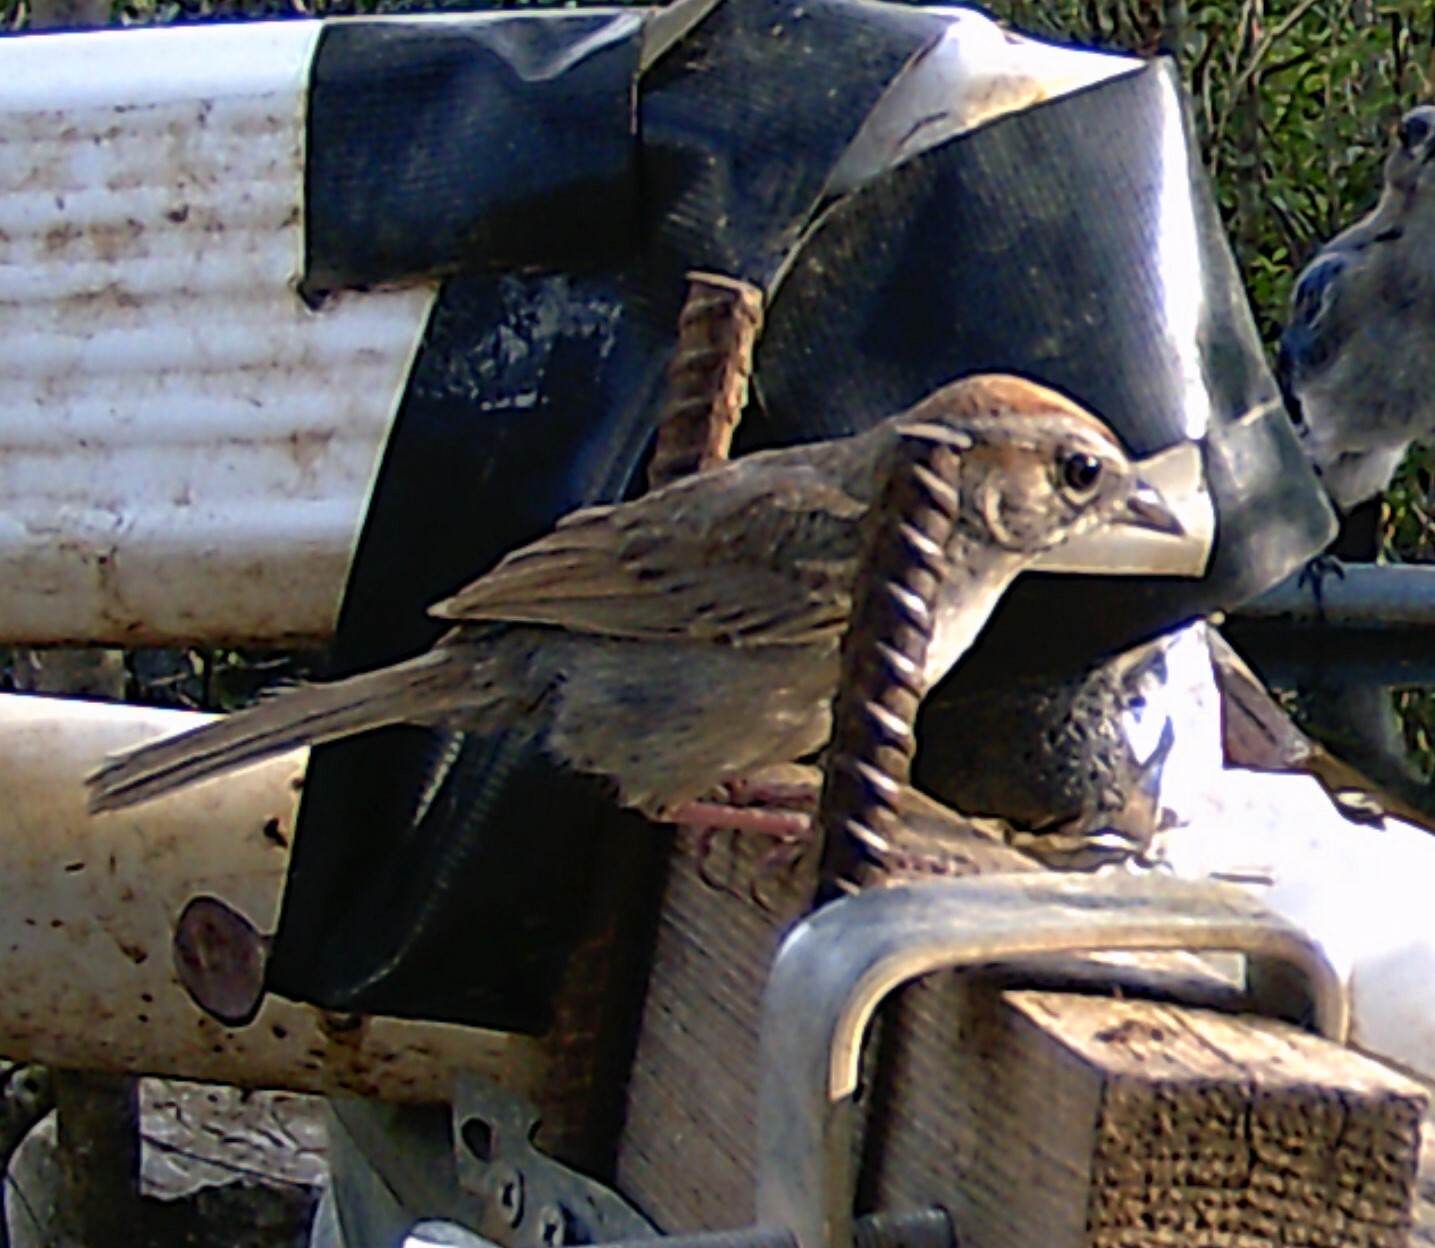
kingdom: Animalia
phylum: Chordata
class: Aves
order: Passeriformes
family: Passerellidae
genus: Aimophila
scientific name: Aimophila ruficeps
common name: Rufous-crowned sparrow
